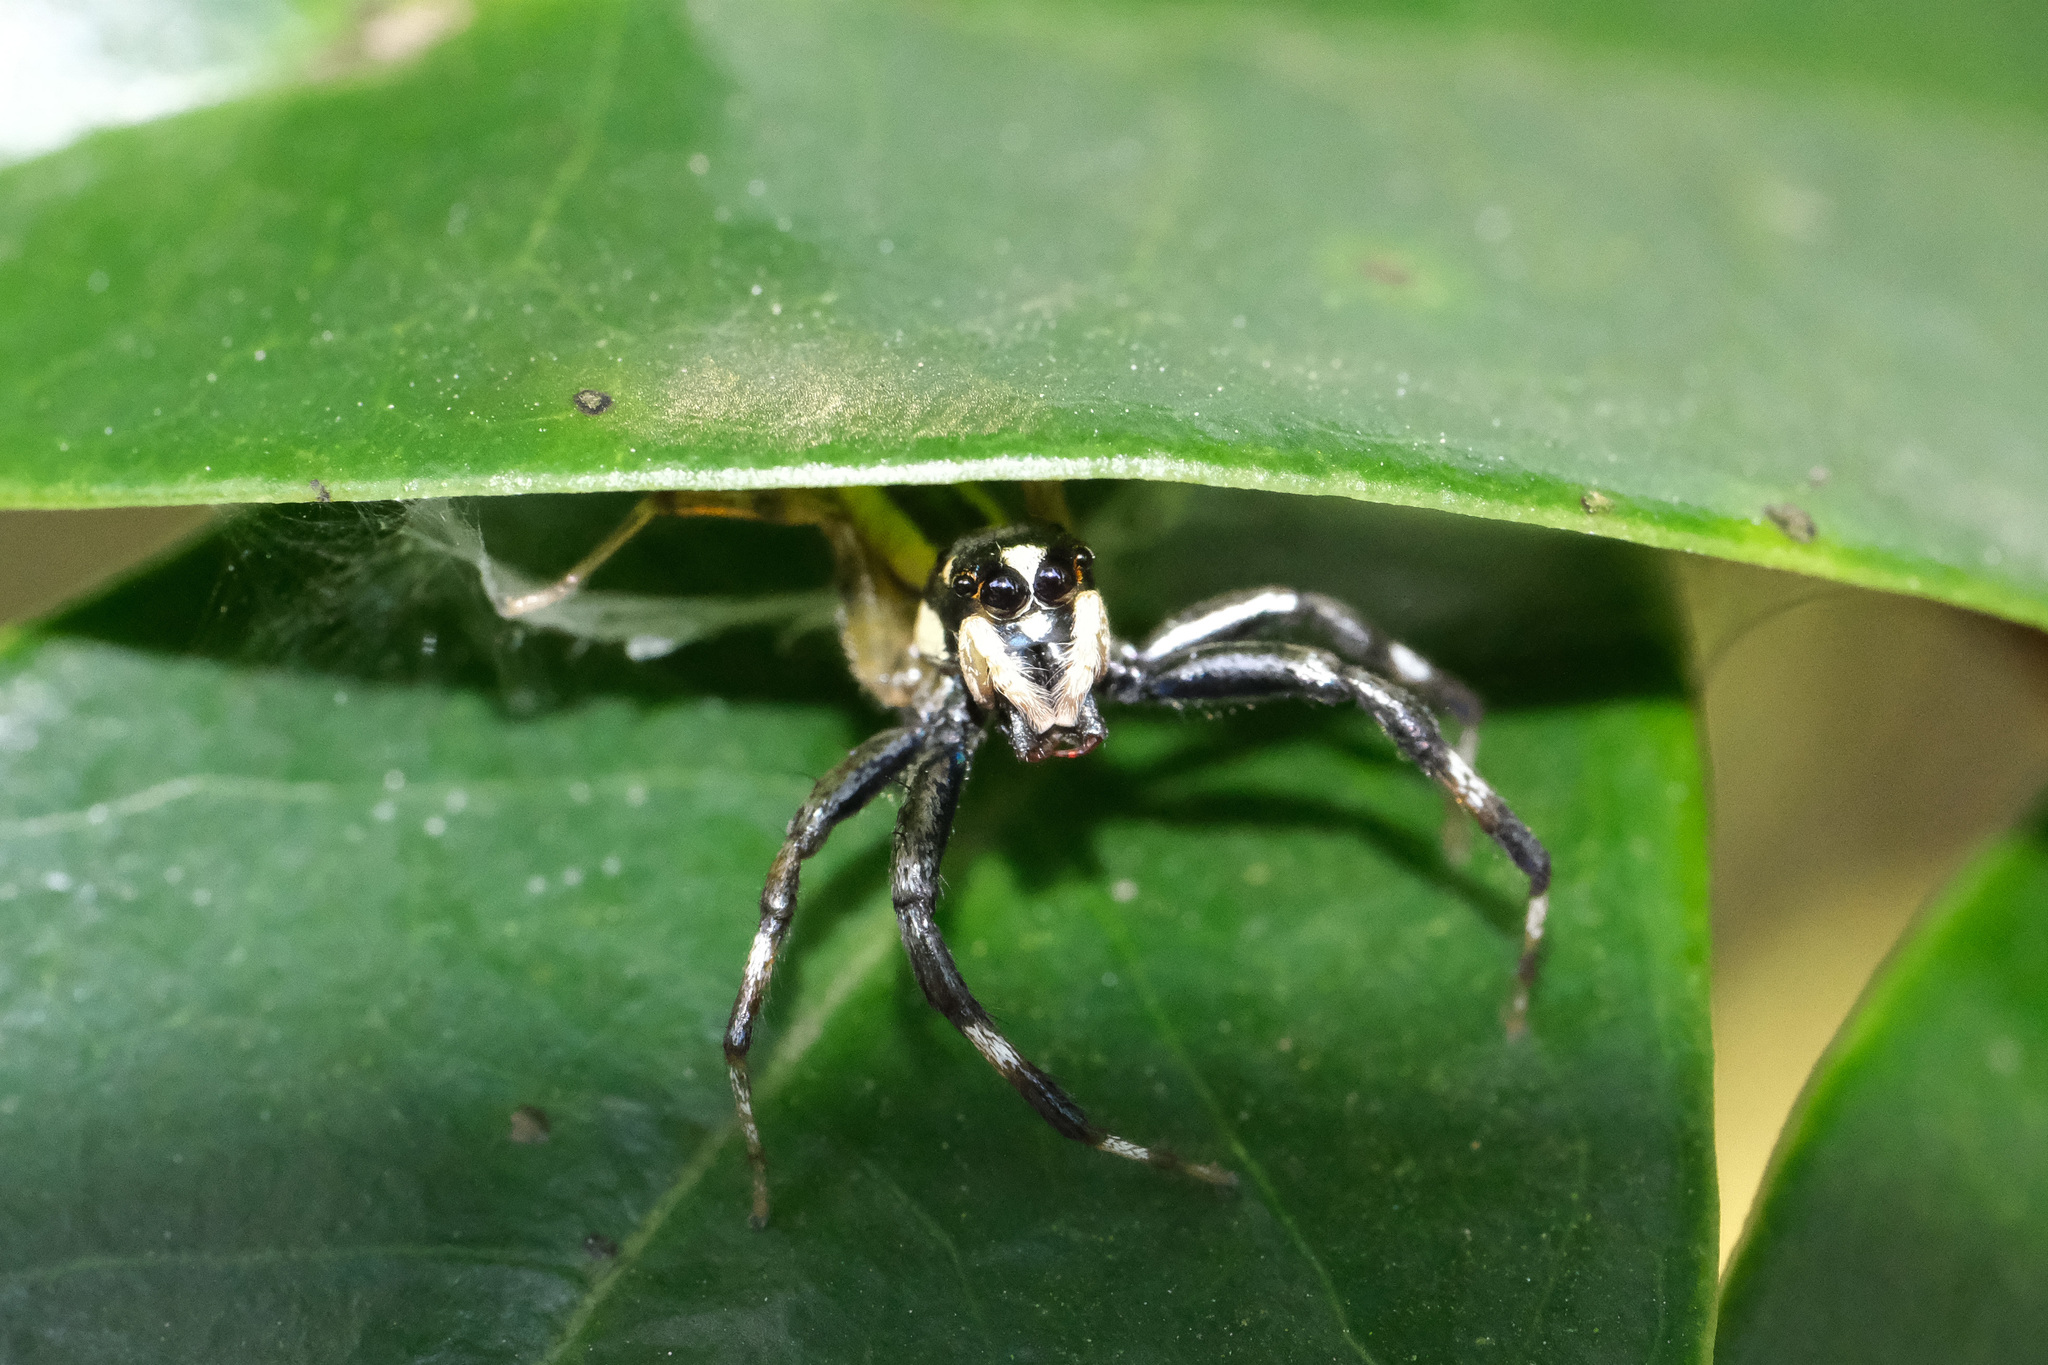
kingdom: Animalia
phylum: Arthropoda
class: Arachnida
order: Araneae
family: Salticidae
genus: Phintelloides
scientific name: Phintelloides versicolor
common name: Jumping spider
